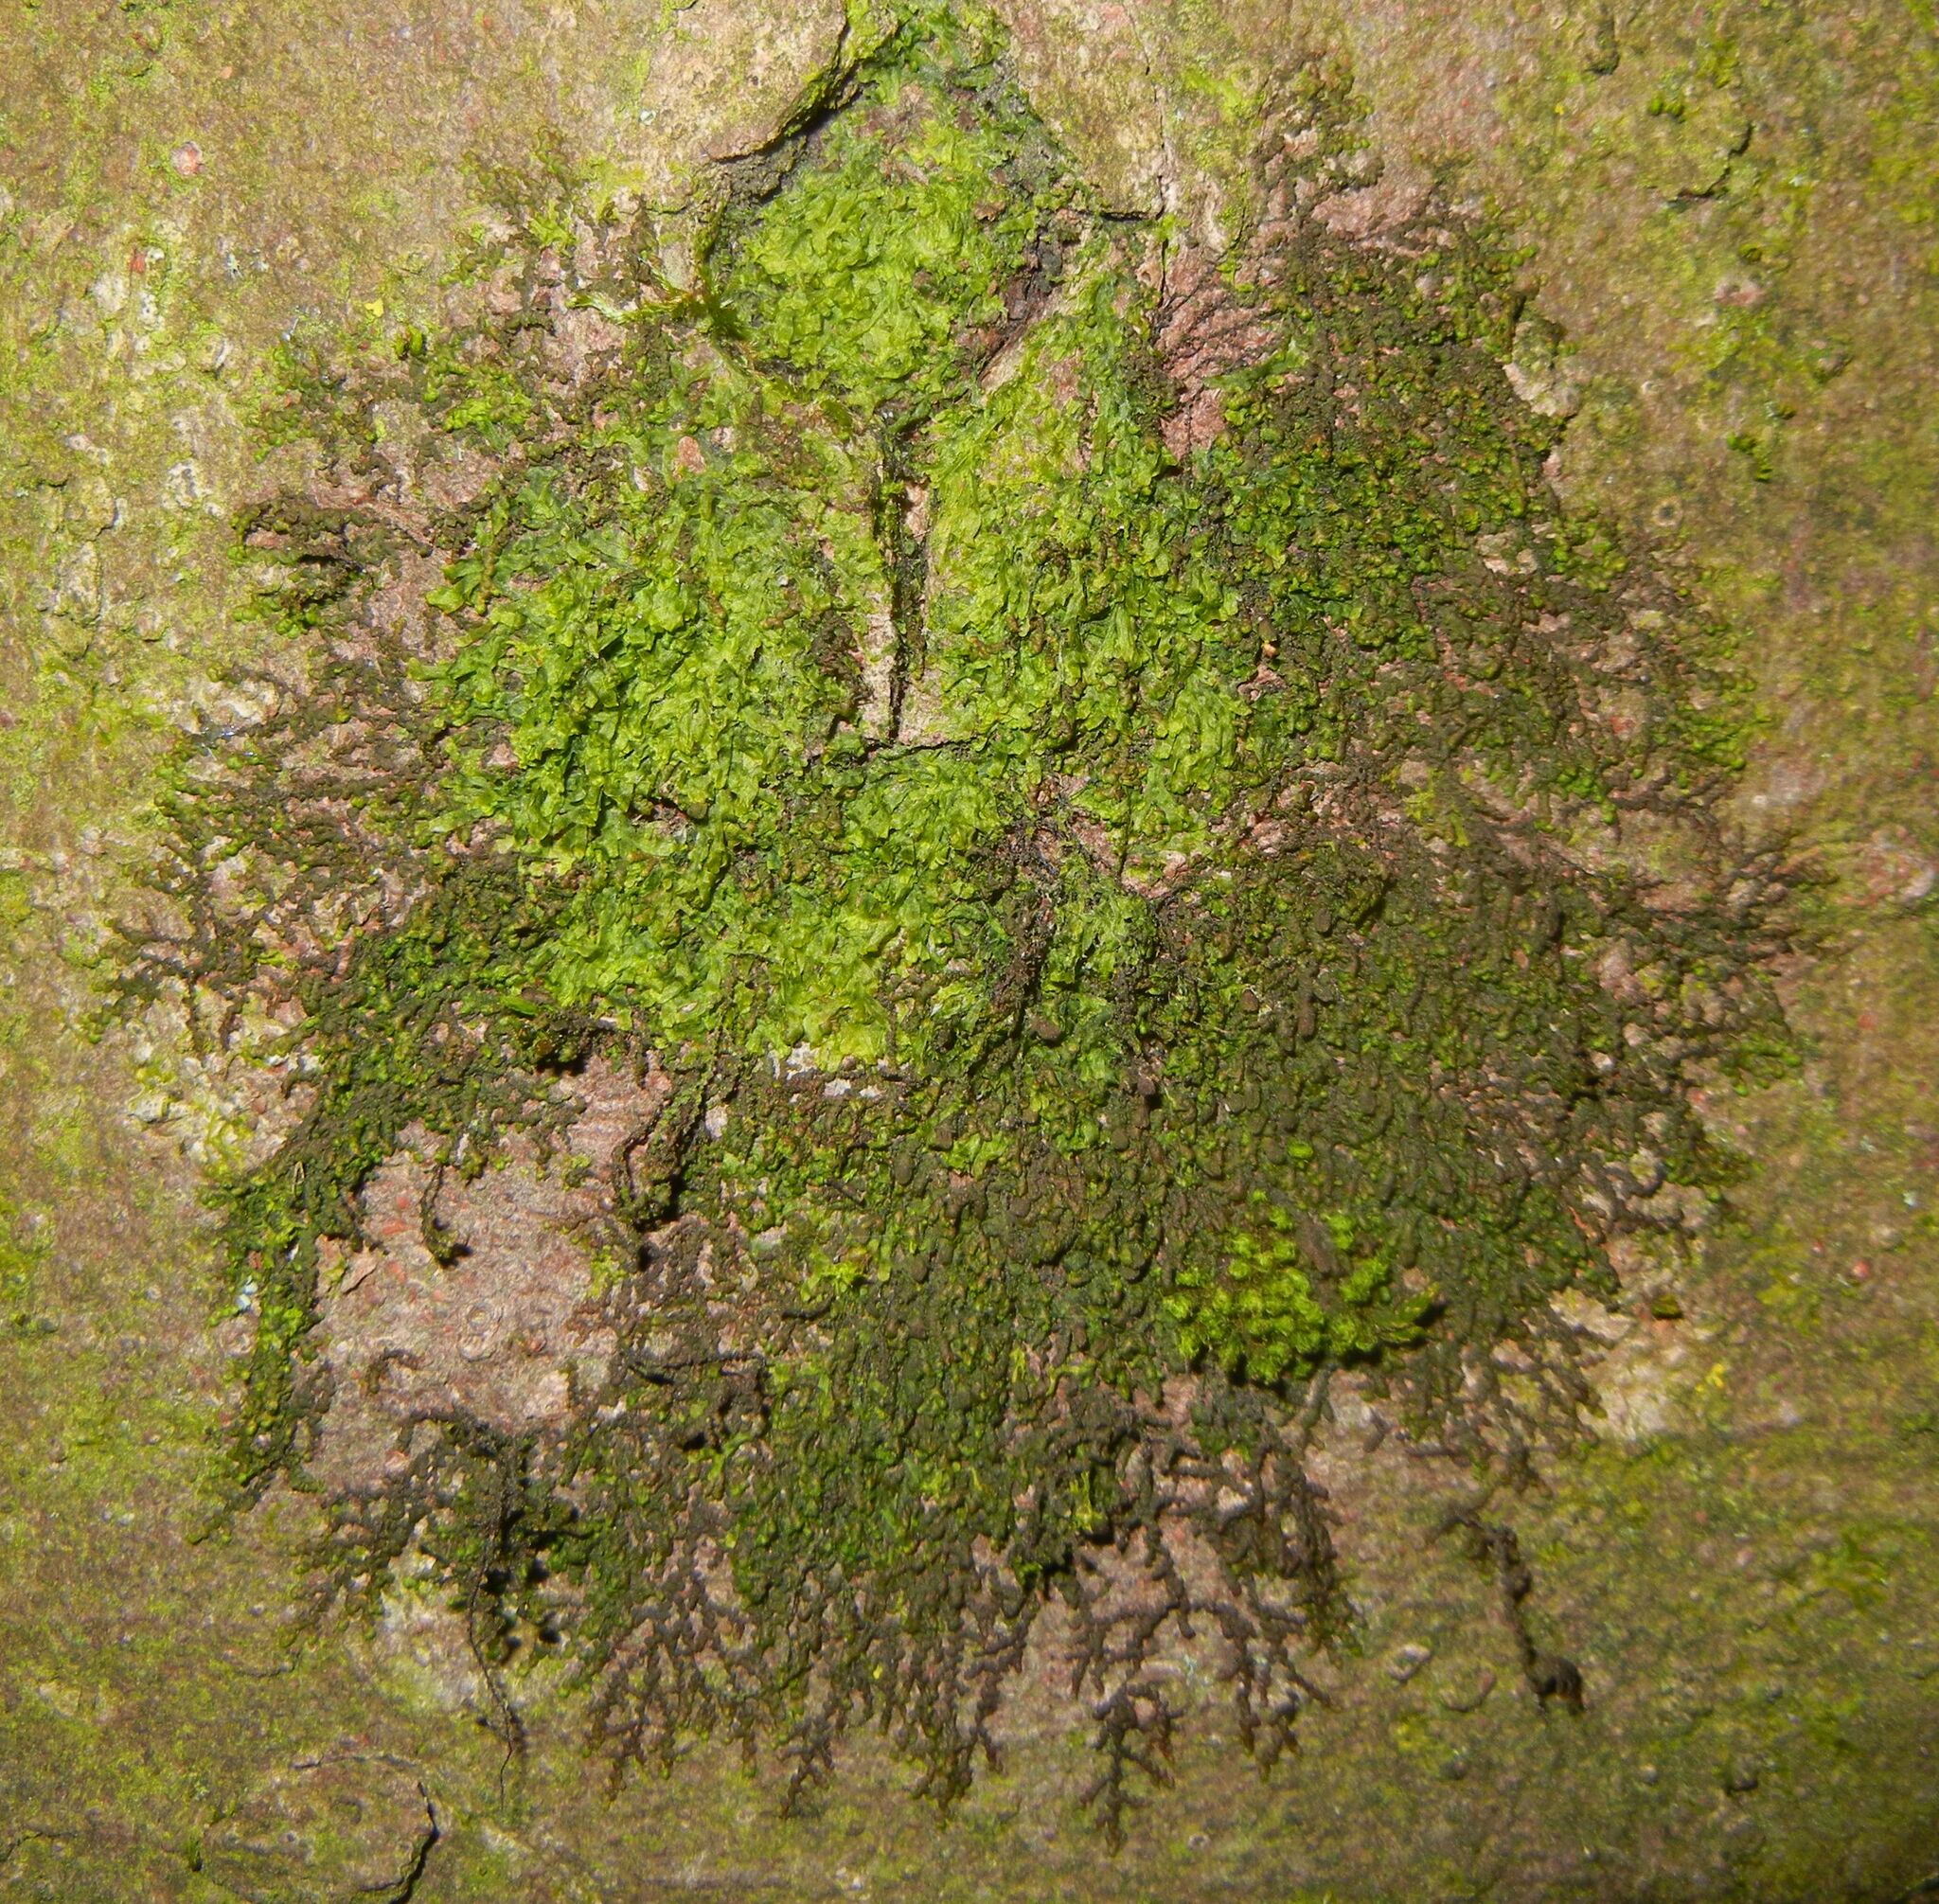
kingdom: Plantae
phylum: Marchantiophyta
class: Jungermanniopsida
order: Porellales
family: Frullaniaceae
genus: Frullania
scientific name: Frullania dilatata
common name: Dilated scalewort
